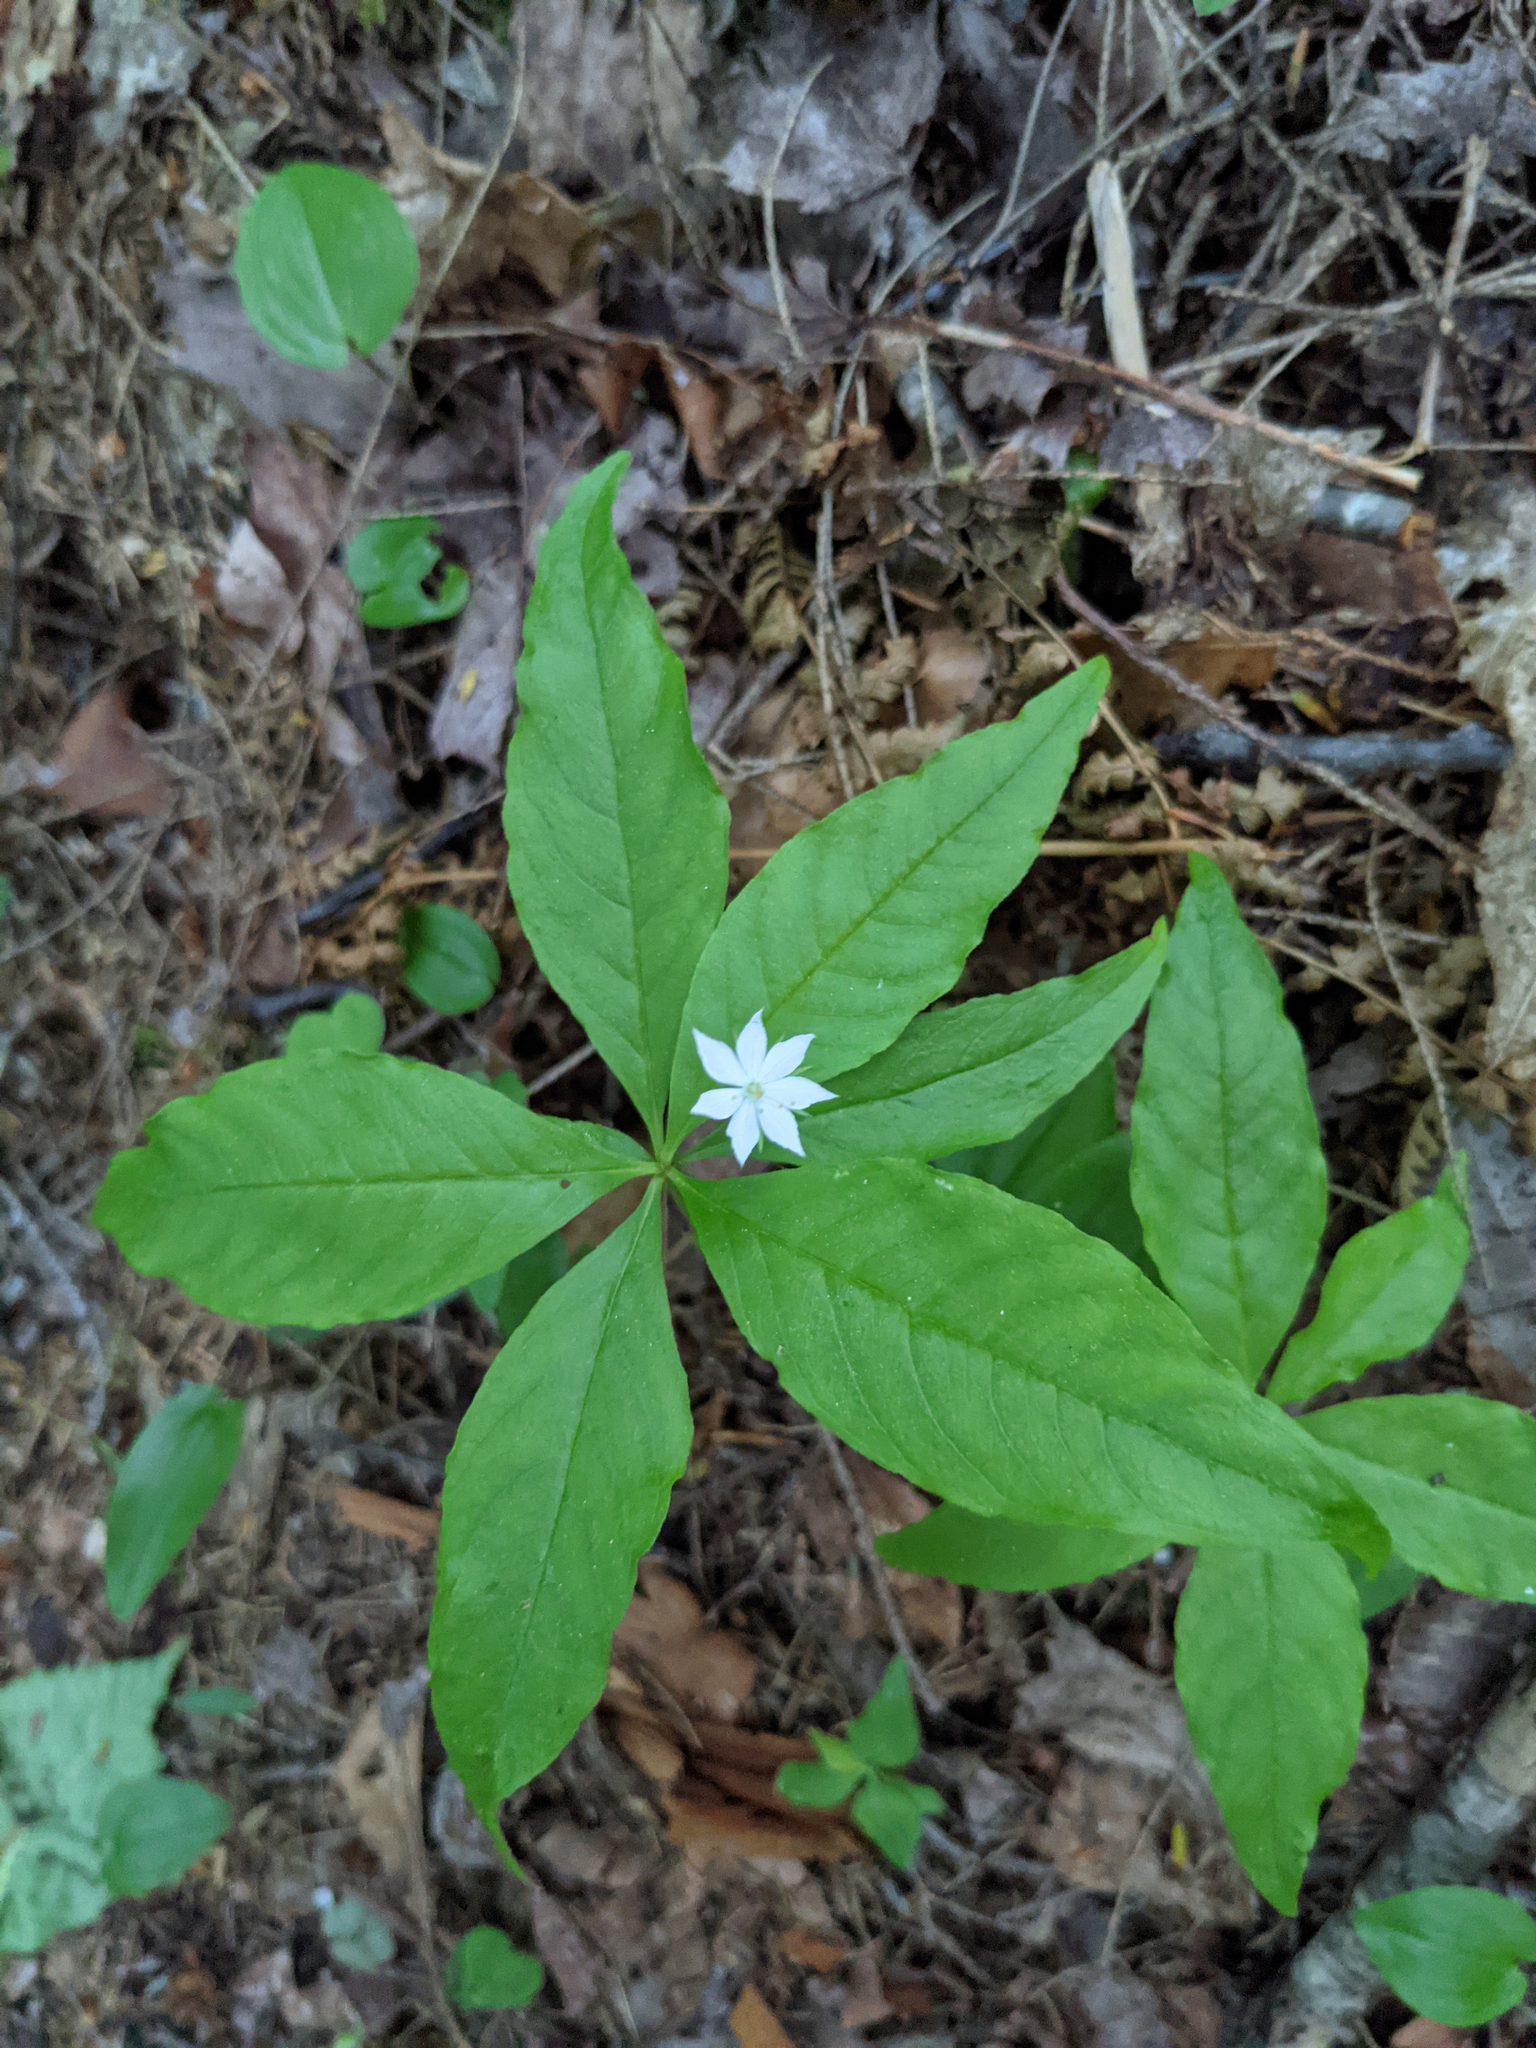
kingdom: Plantae
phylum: Tracheophyta
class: Magnoliopsida
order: Ericales
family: Primulaceae
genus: Lysimachia
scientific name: Lysimachia borealis
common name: American starflower
